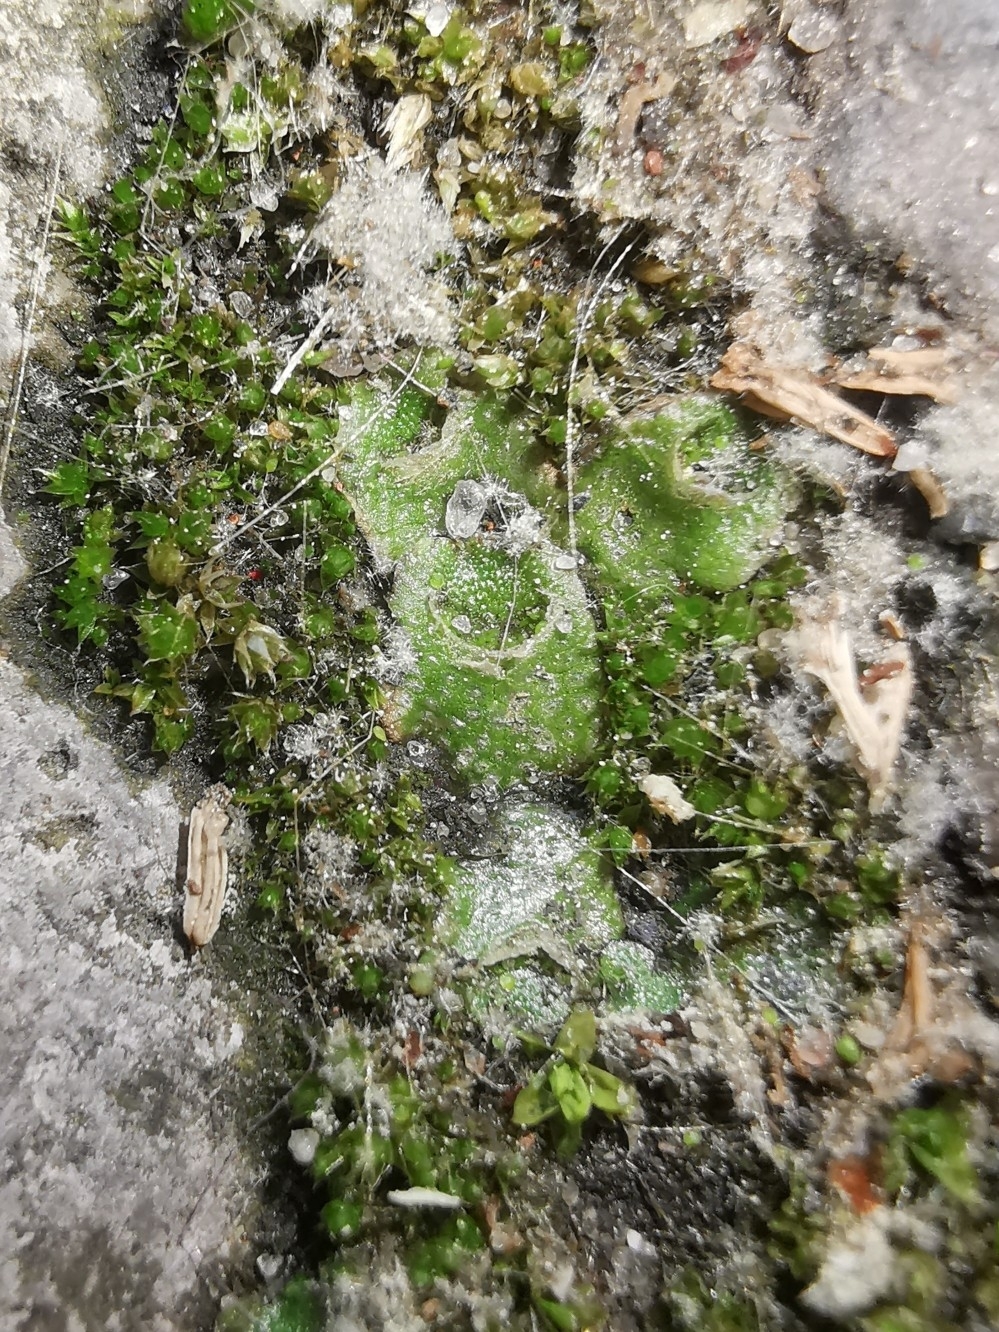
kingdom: Plantae
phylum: Marchantiophyta
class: Marchantiopsida
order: Lunulariales
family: Lunulariaceae
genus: Lunularia
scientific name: Lunularia cruciata
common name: Crescent-cup liverwort
